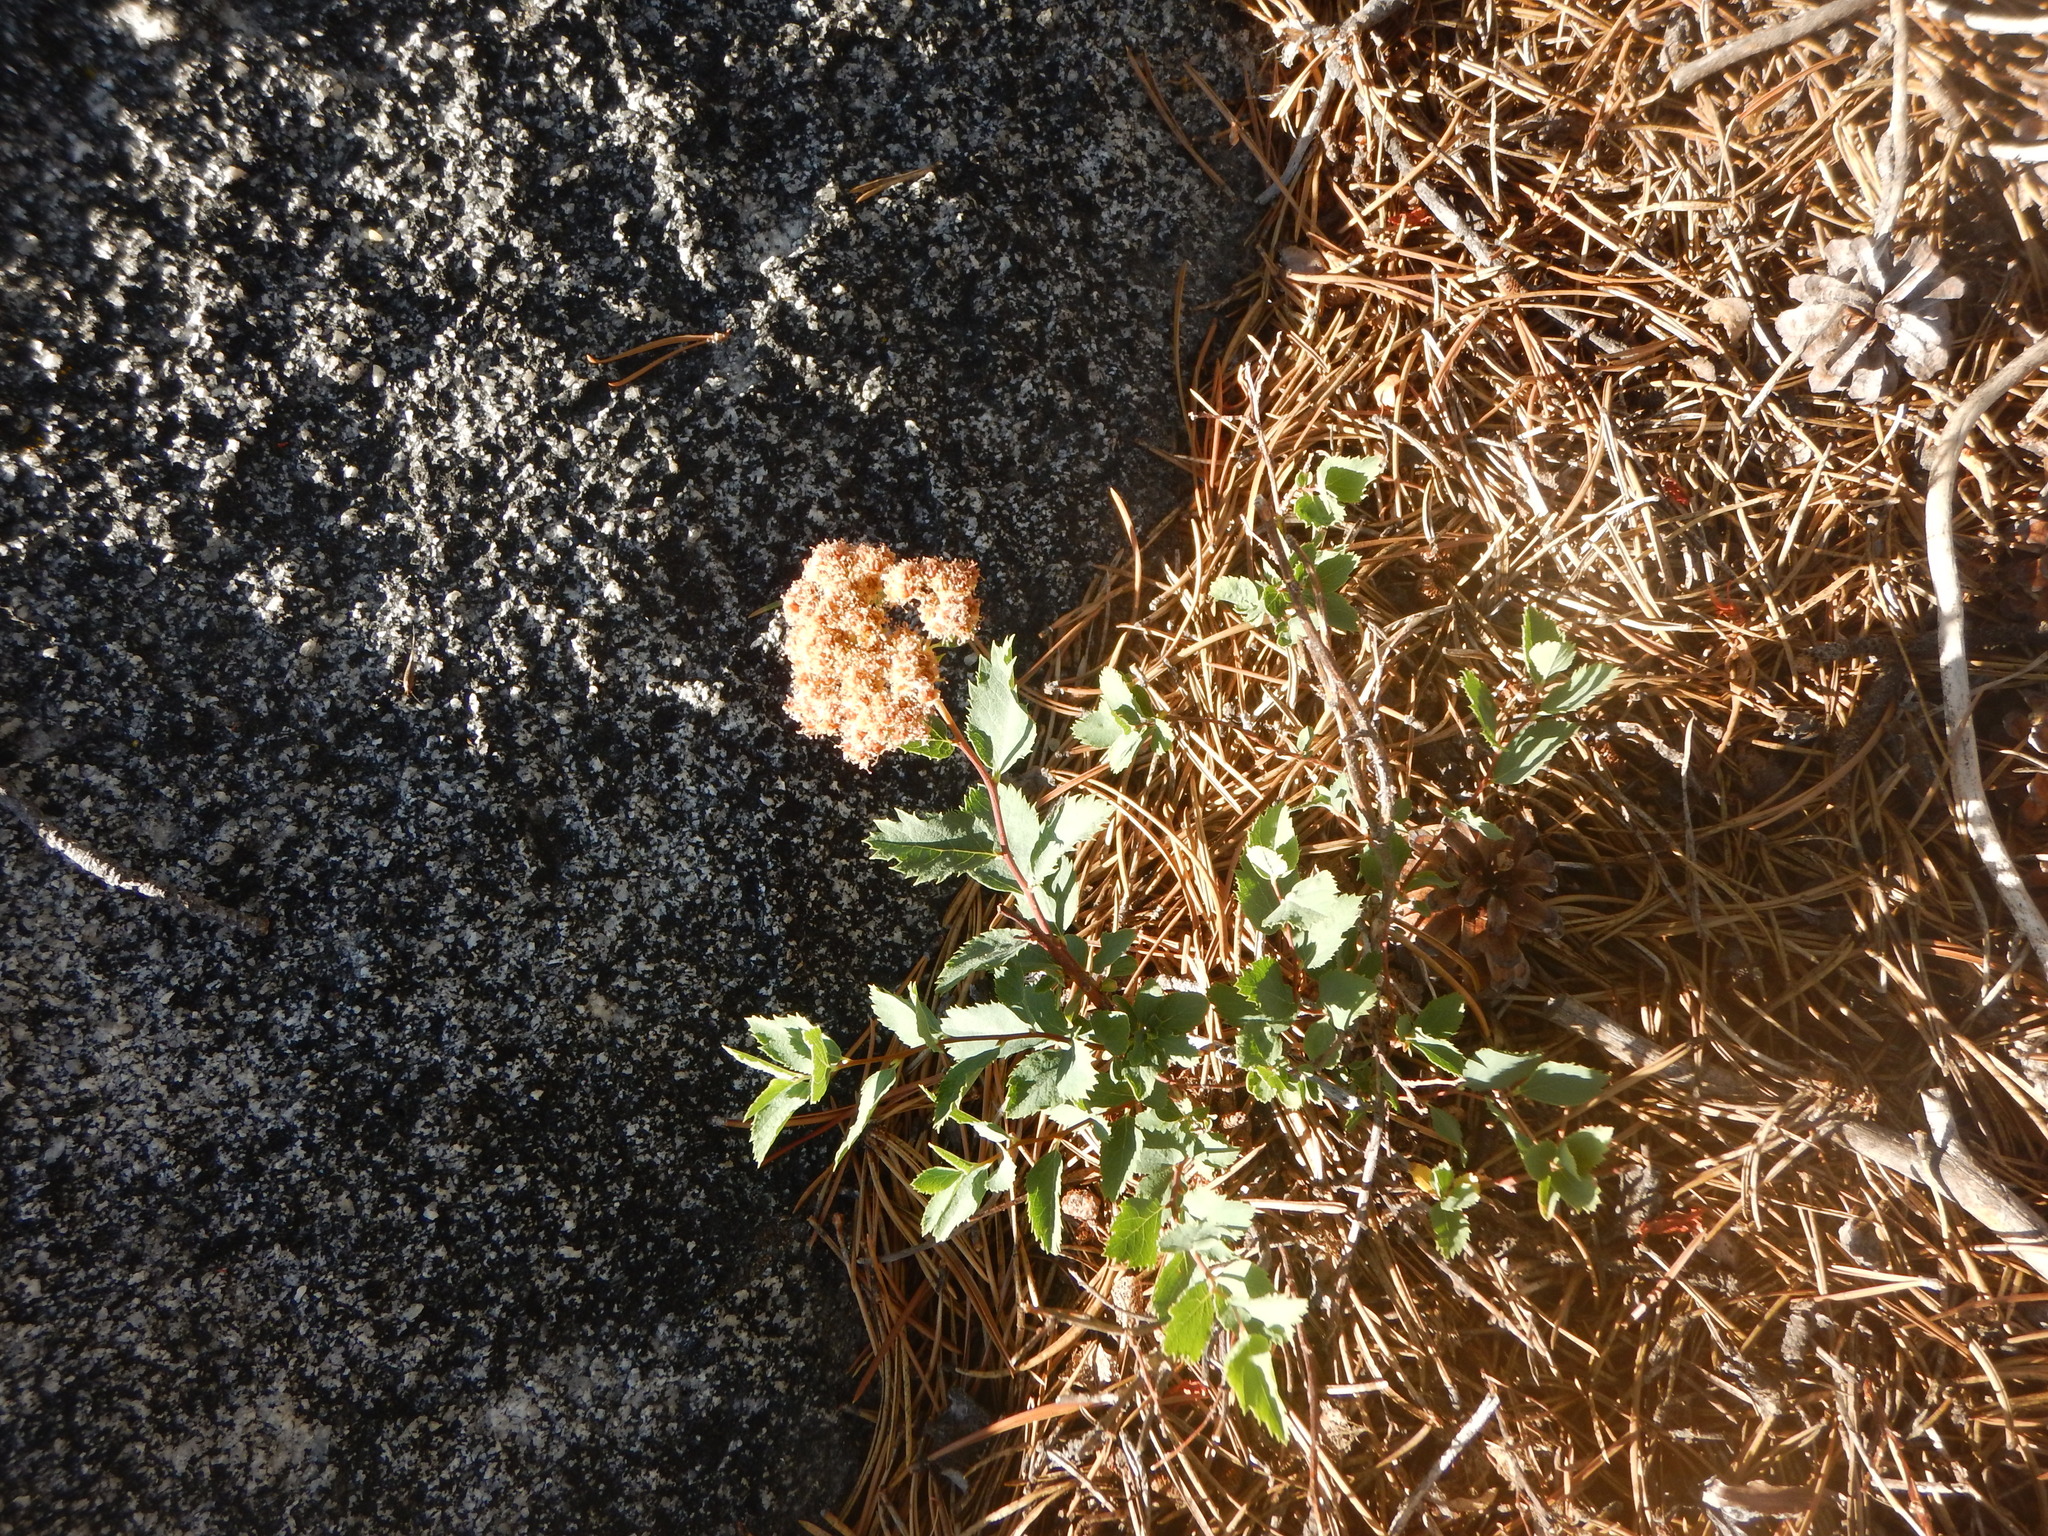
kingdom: Plantae
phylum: Tracheophyta
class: Magnoliopsida
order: Rosales
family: Rosaceae
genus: Spiraea
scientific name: Spiraea splendens
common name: Subalpine meadowsweet
